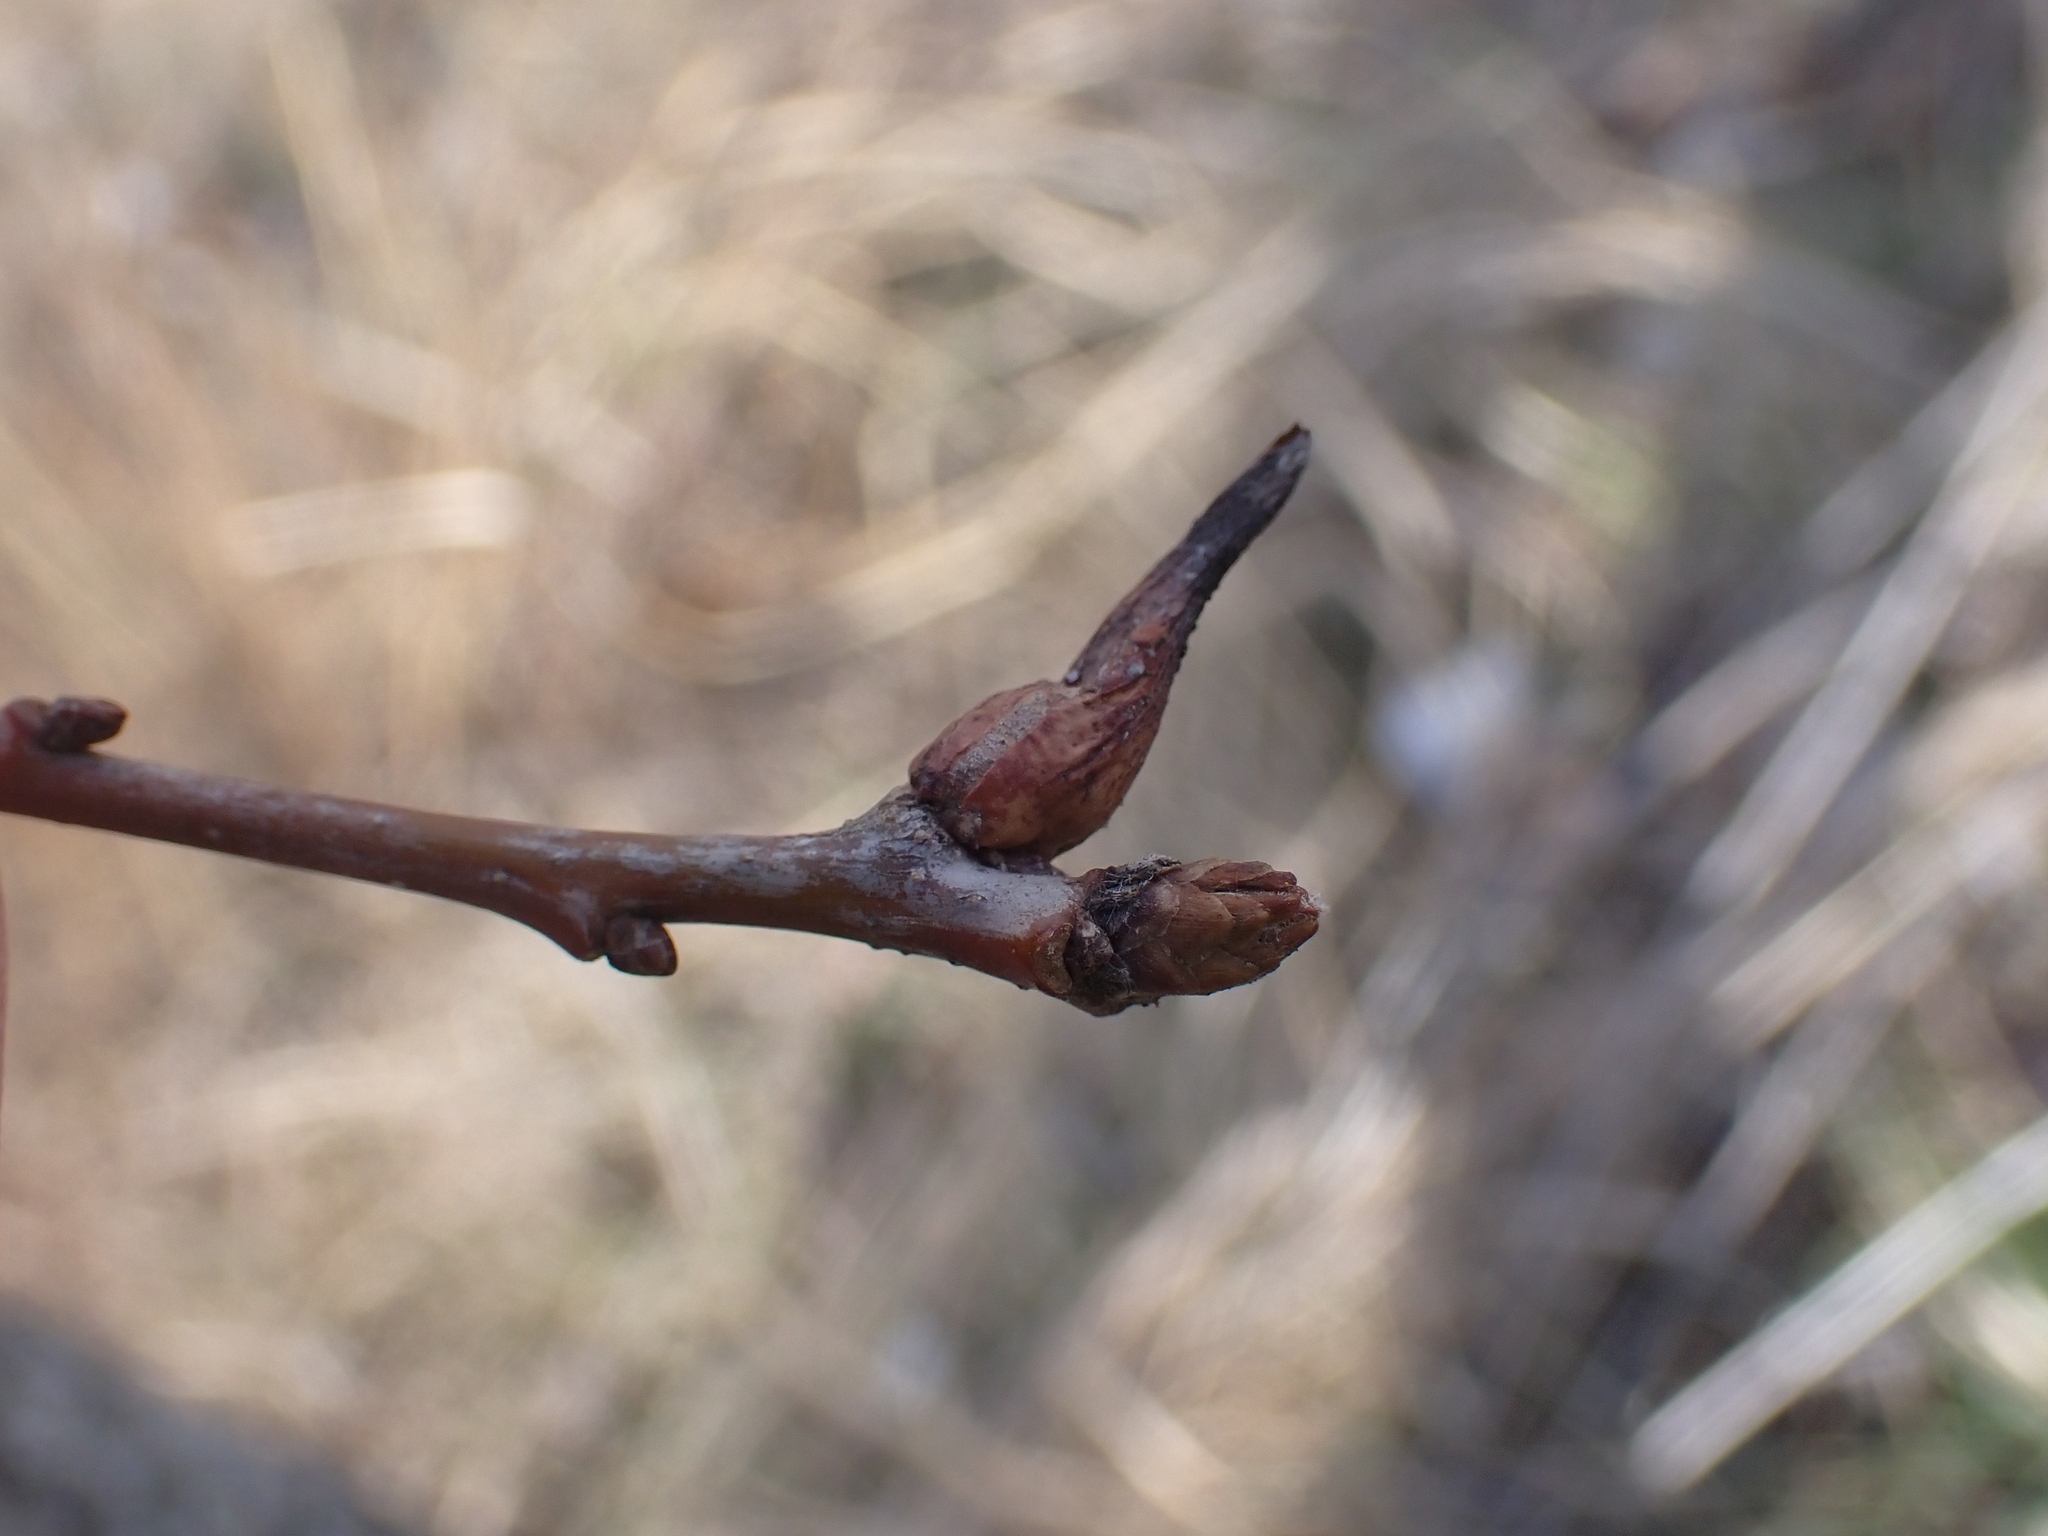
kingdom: Animalia
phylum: Arthropoda
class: Insecta
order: Hymenoptera
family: Cynipidae
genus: Andricus
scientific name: Andricus aries
